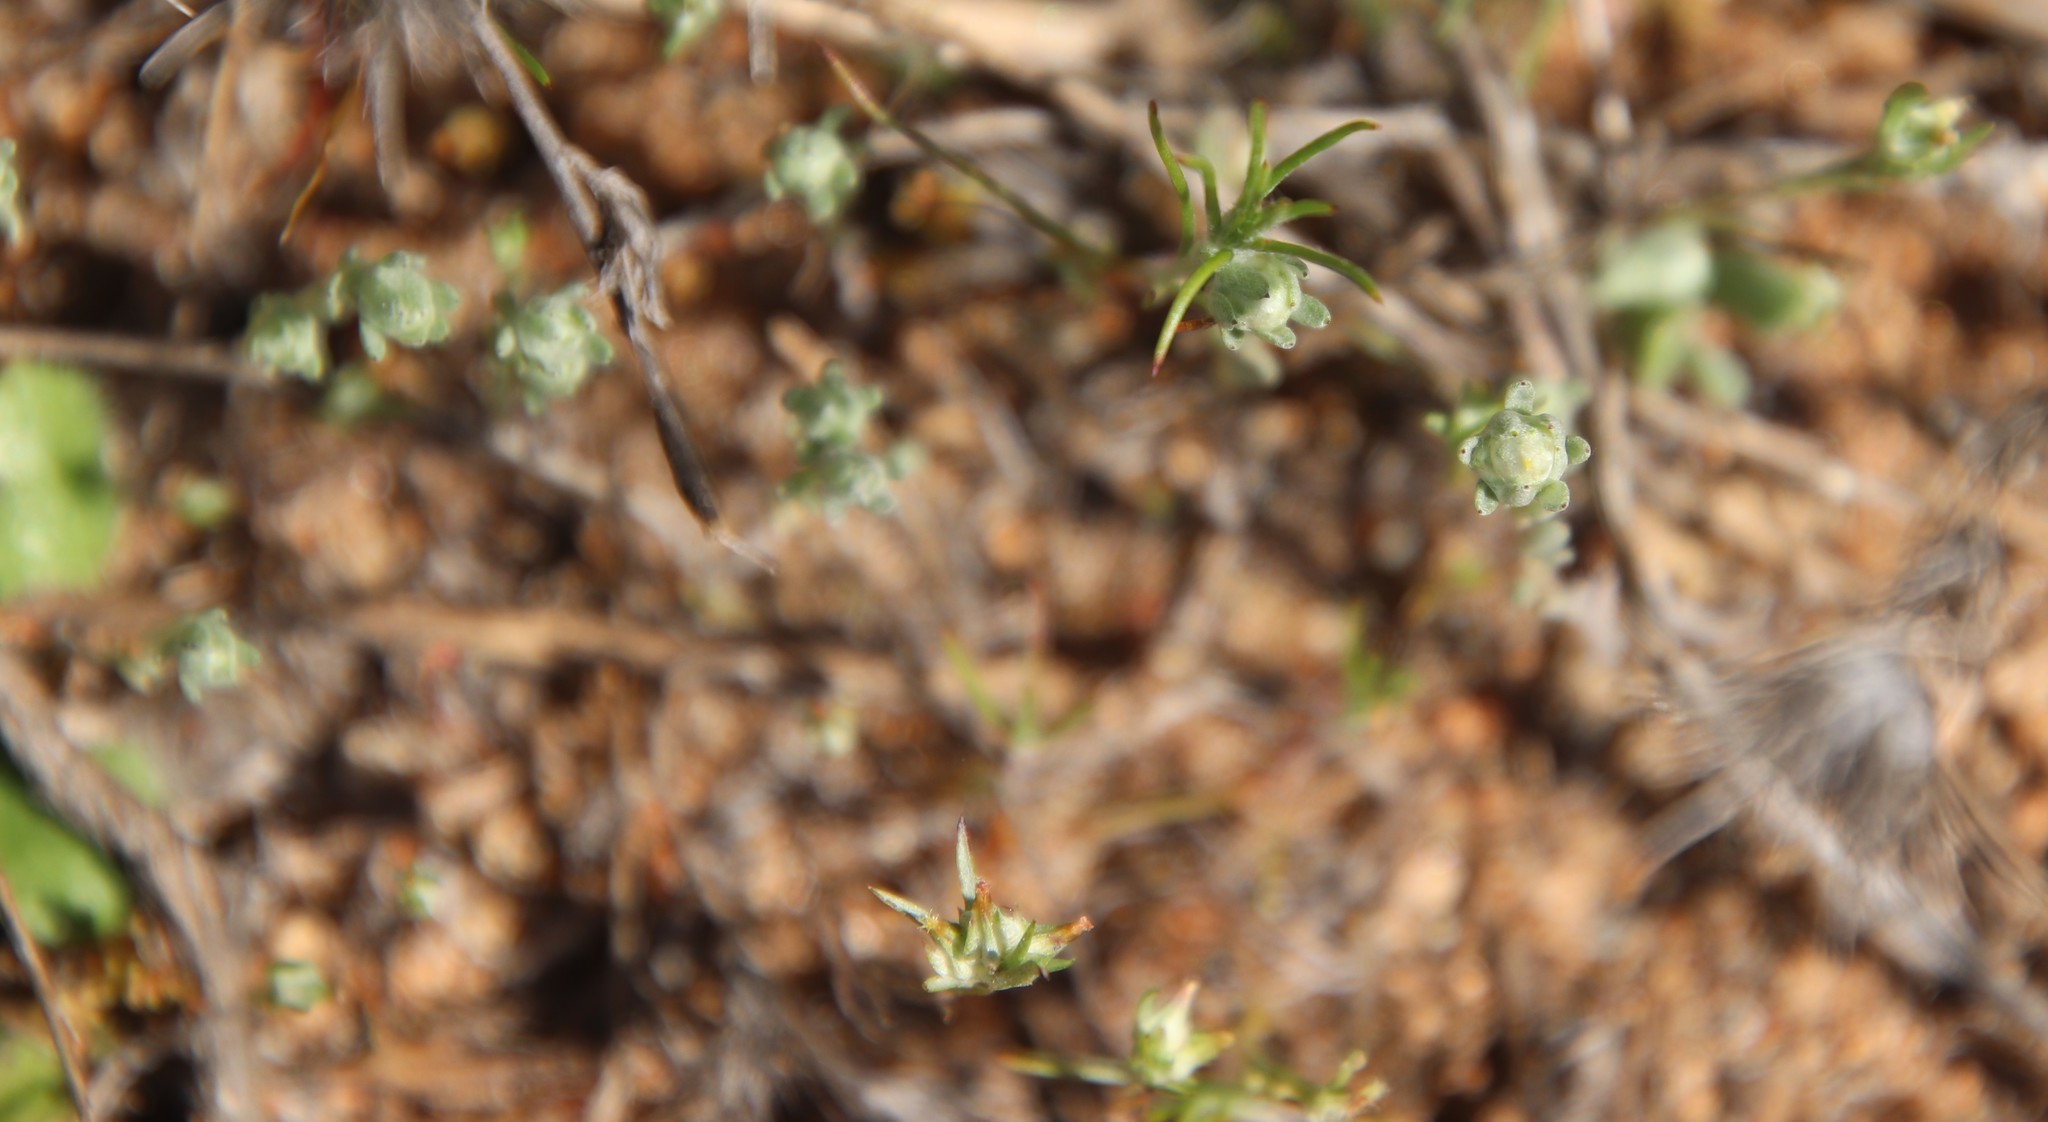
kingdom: Plantae
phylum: Tracheophyta
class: Magnoliopsida
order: Asterales
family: Asteraceae
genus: Logfia
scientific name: Logfia gallica
